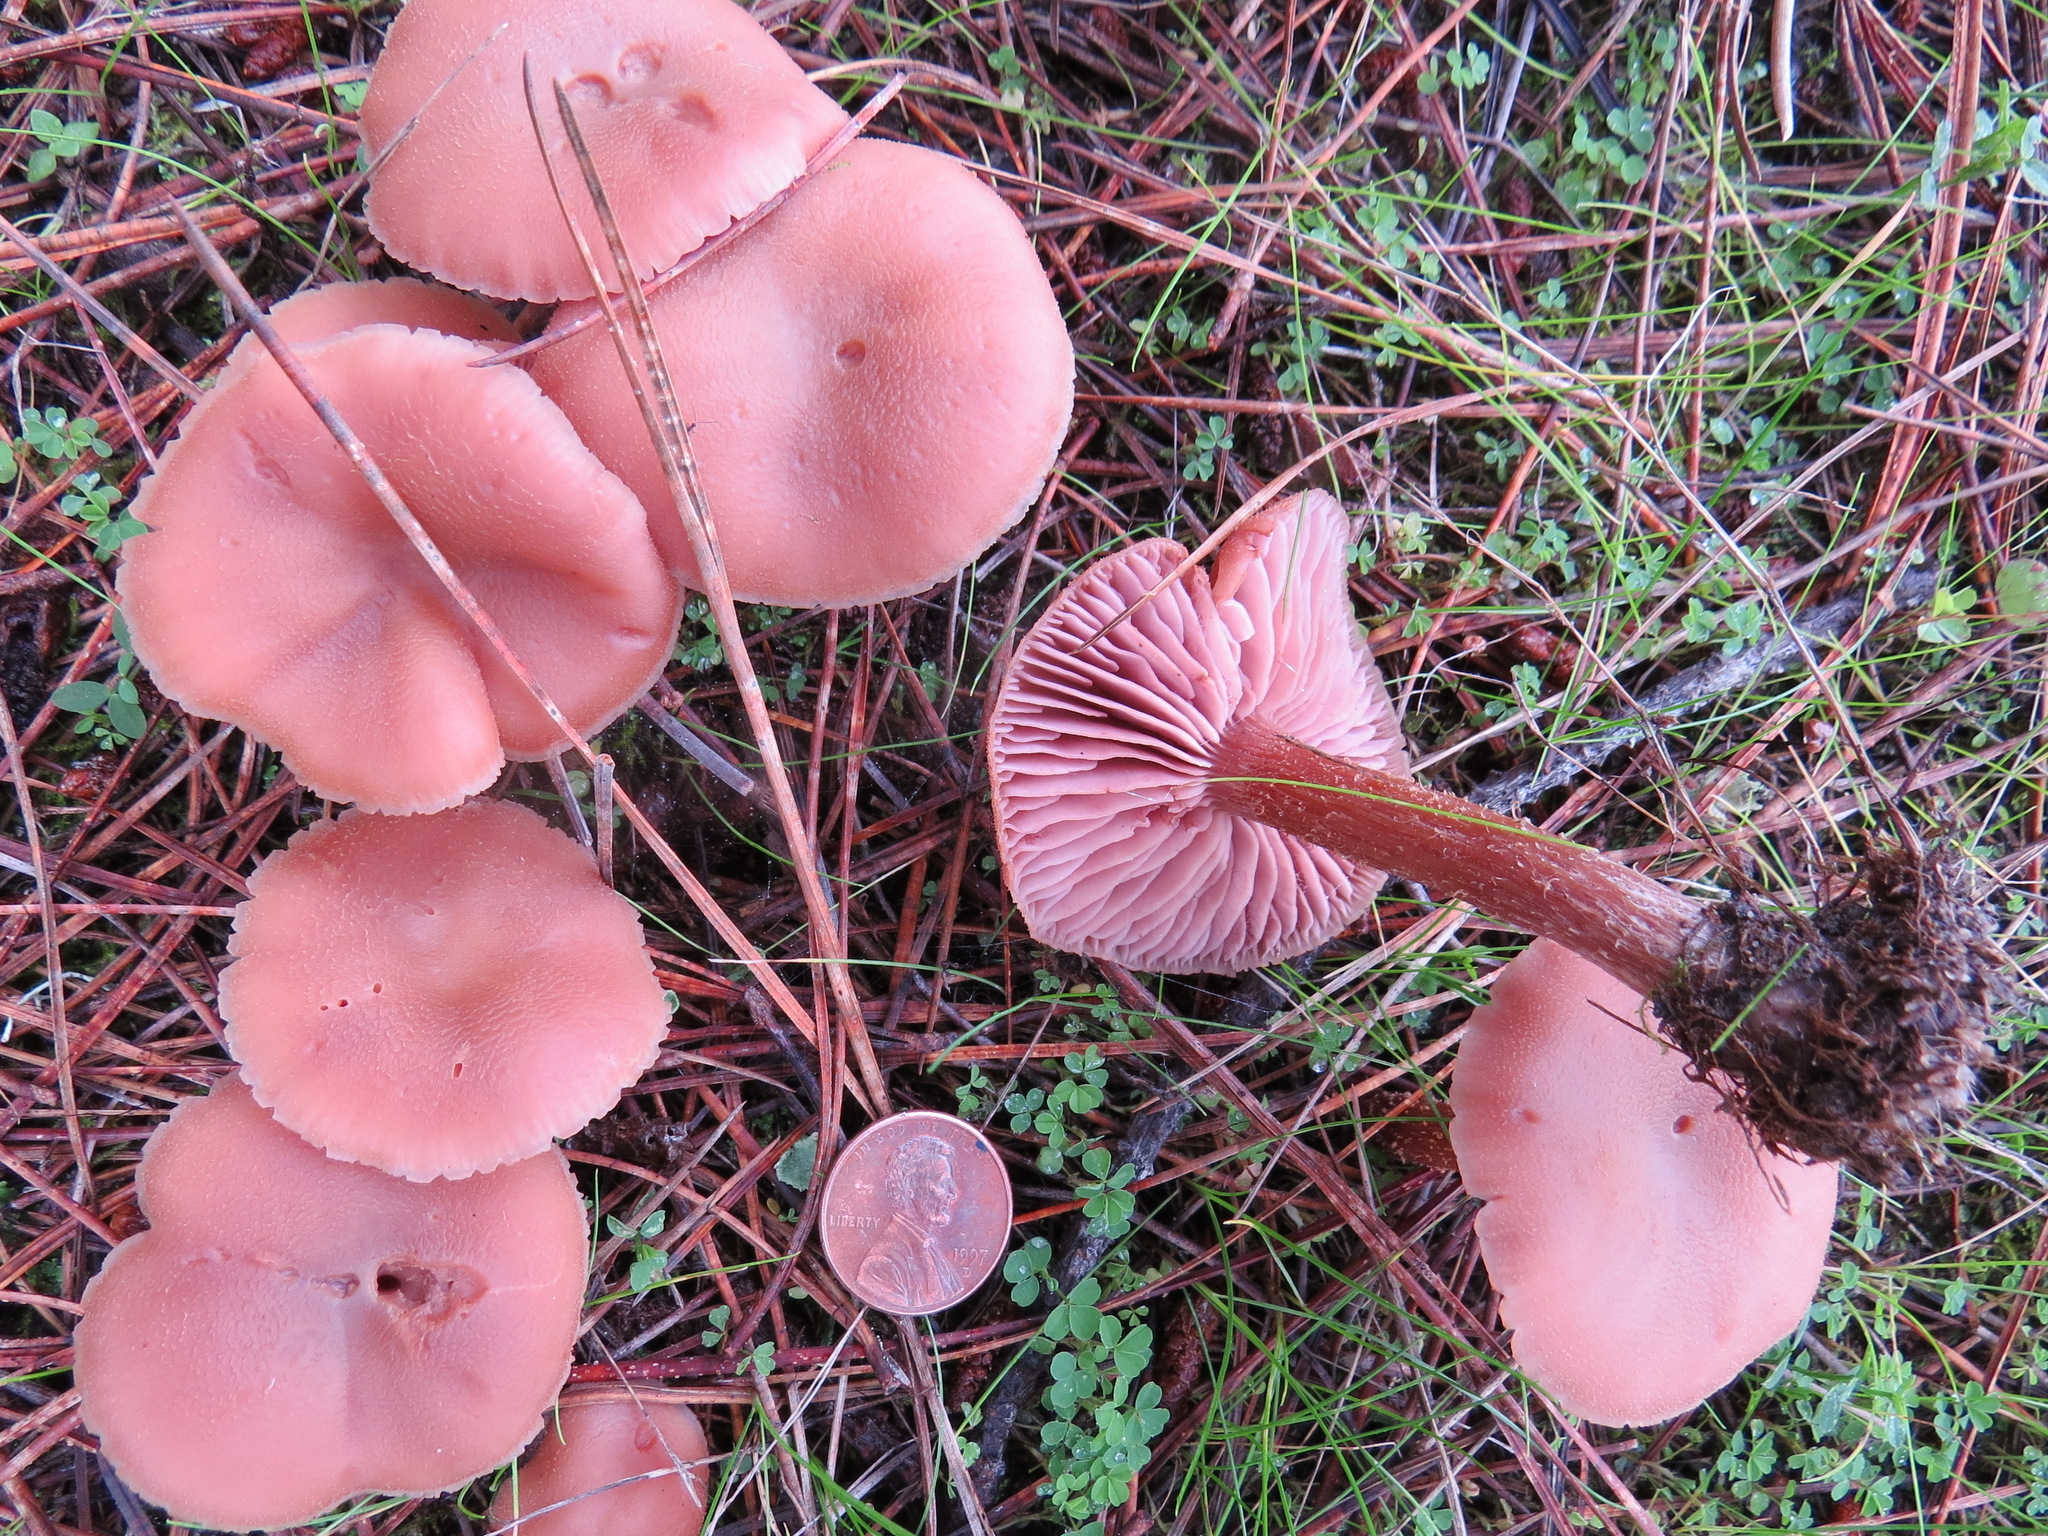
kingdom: Fungi
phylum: Basidiomycota
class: Agaricomycetes
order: Agaricales
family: Hydnangiaceae
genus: Laccaria
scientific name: Laccaria amethysteo-occidentalis
